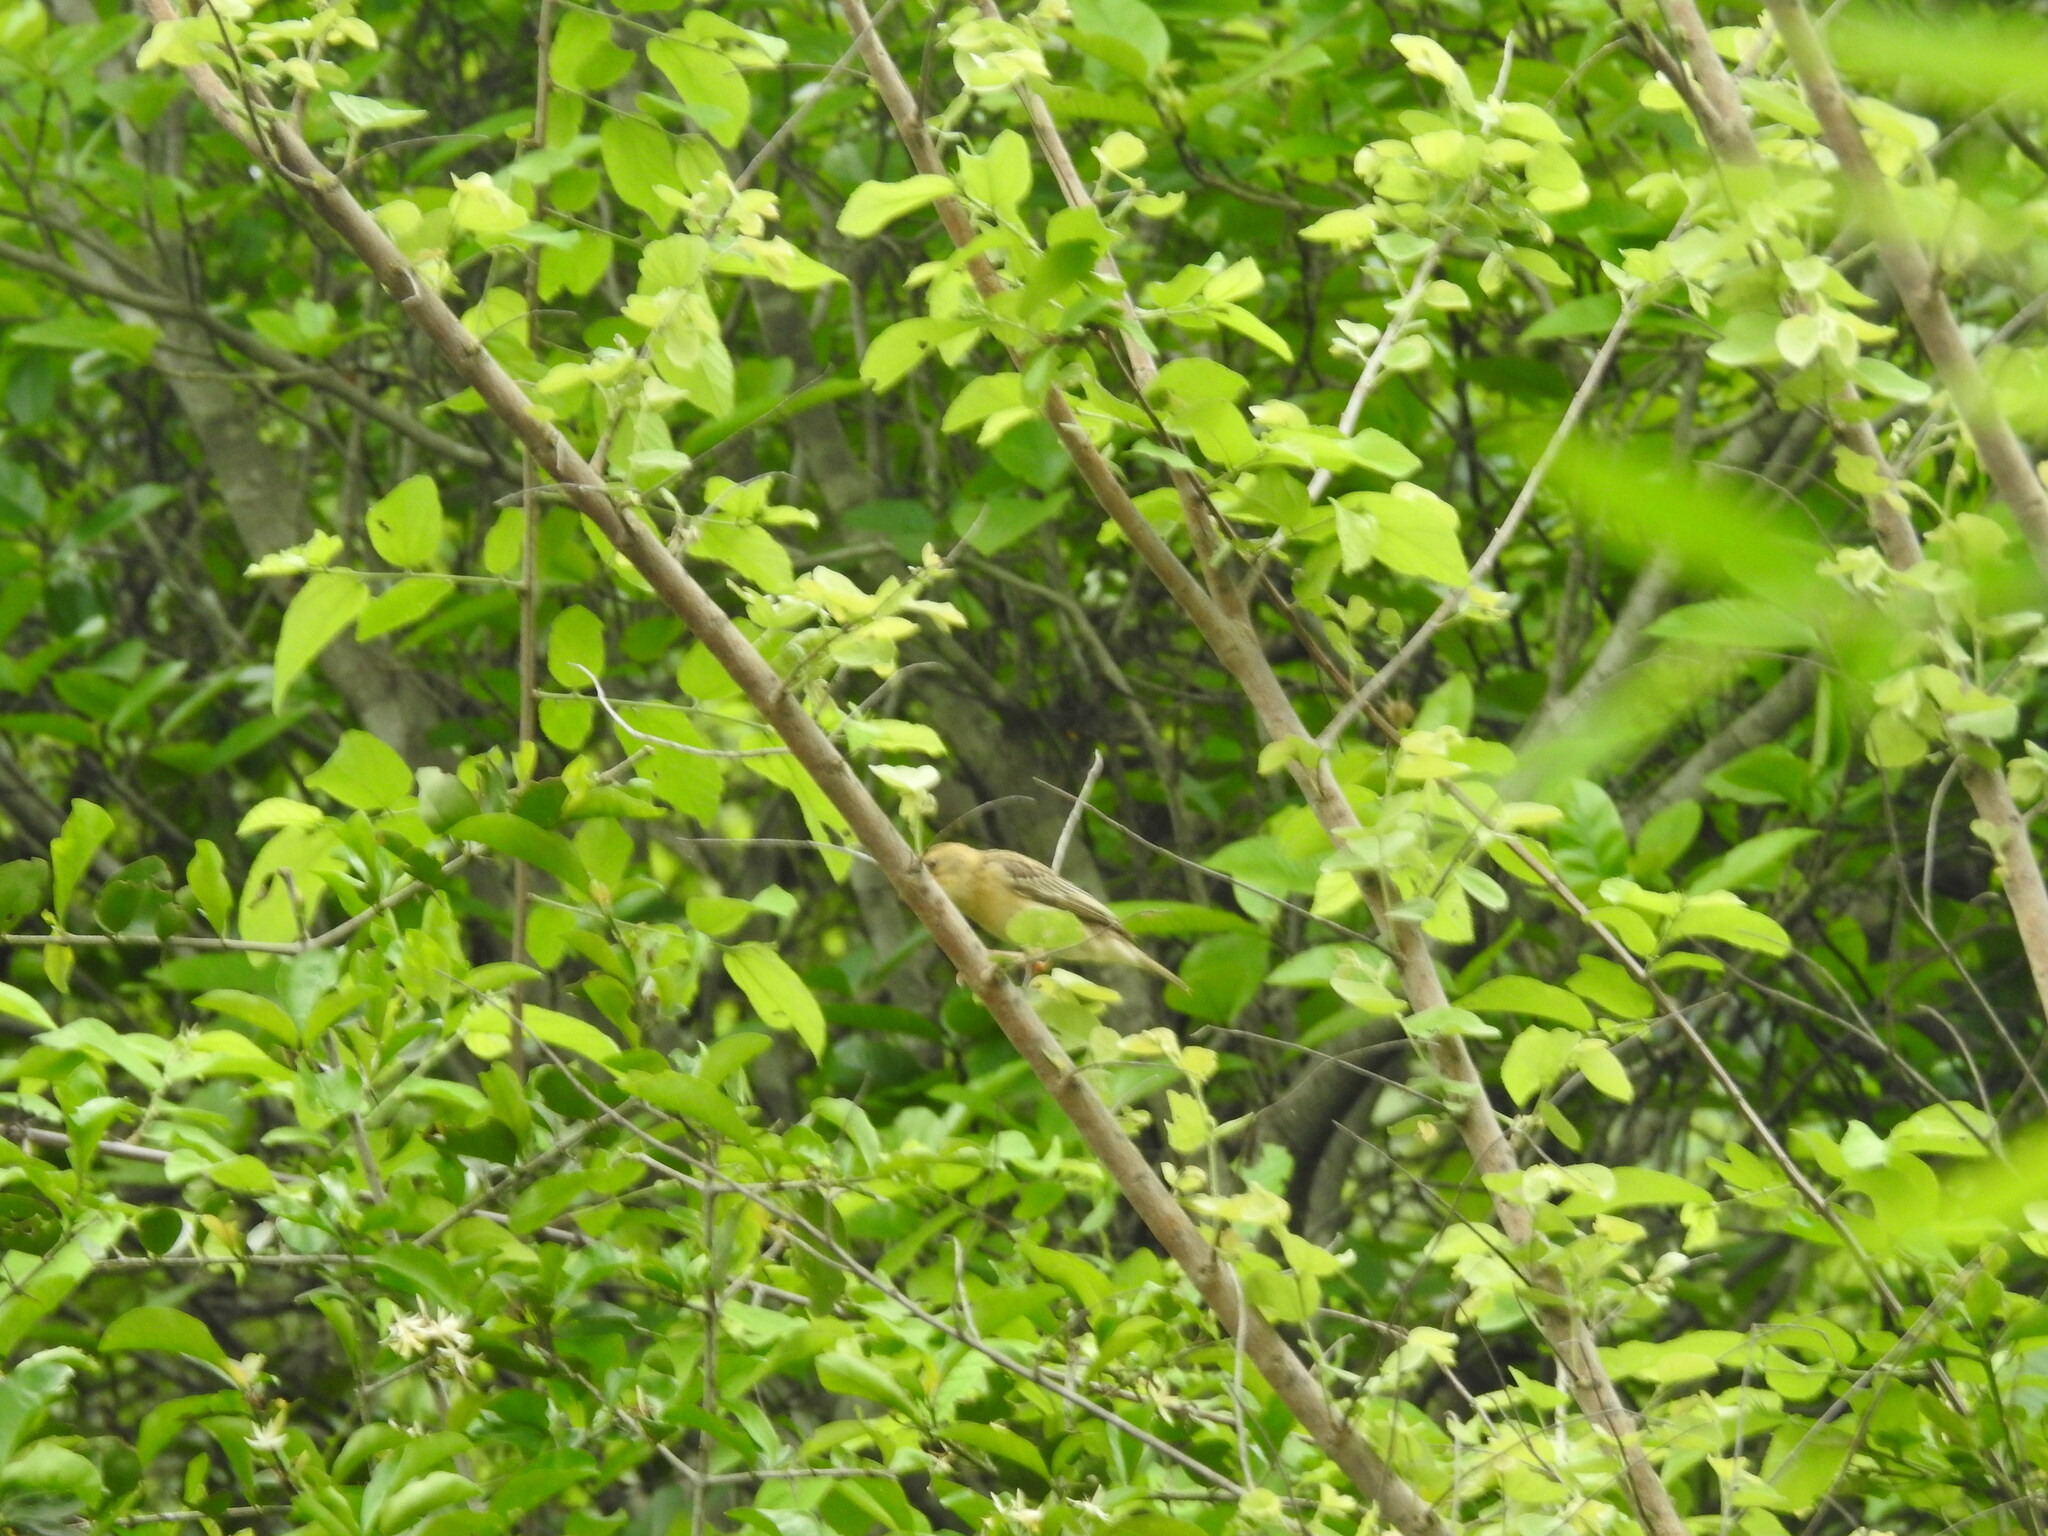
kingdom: Animalia
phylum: Chordata
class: Aves
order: Passeriformes
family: Ploceidae
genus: Ploceus
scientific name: Ploceus philippinus
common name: Baya weaver
